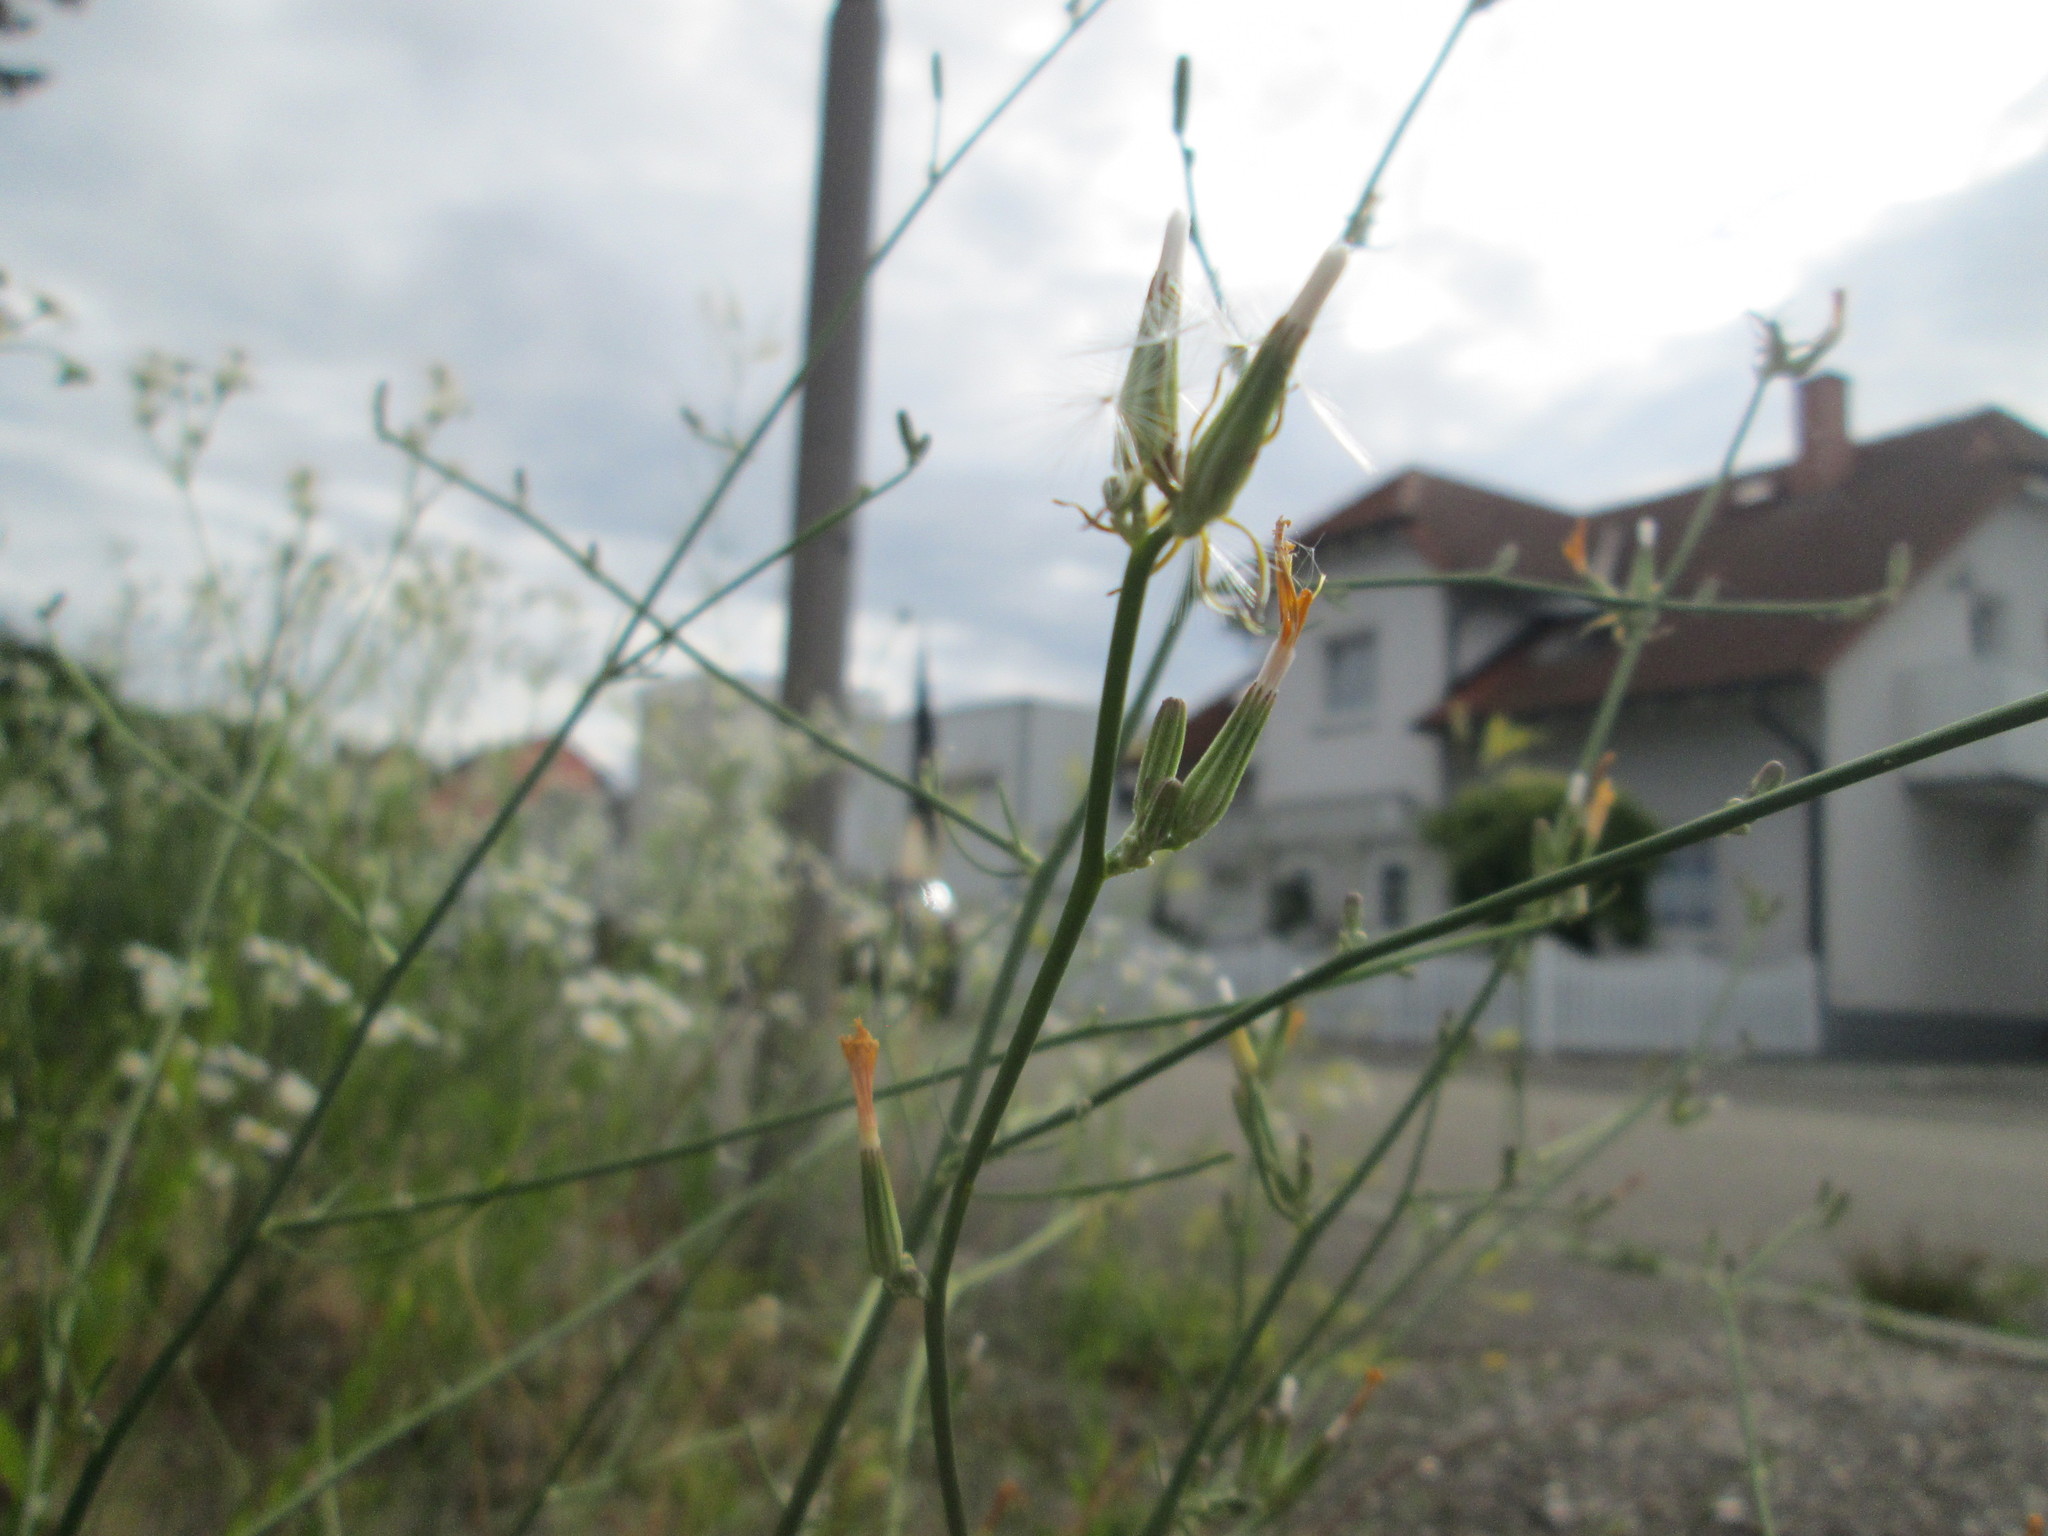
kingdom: Plantae
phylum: Tracheophyta
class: Magnoliopsida
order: Asterales
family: Asteraceae
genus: Chondrilla
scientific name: Chondrilla juncea
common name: Skeleton weed
